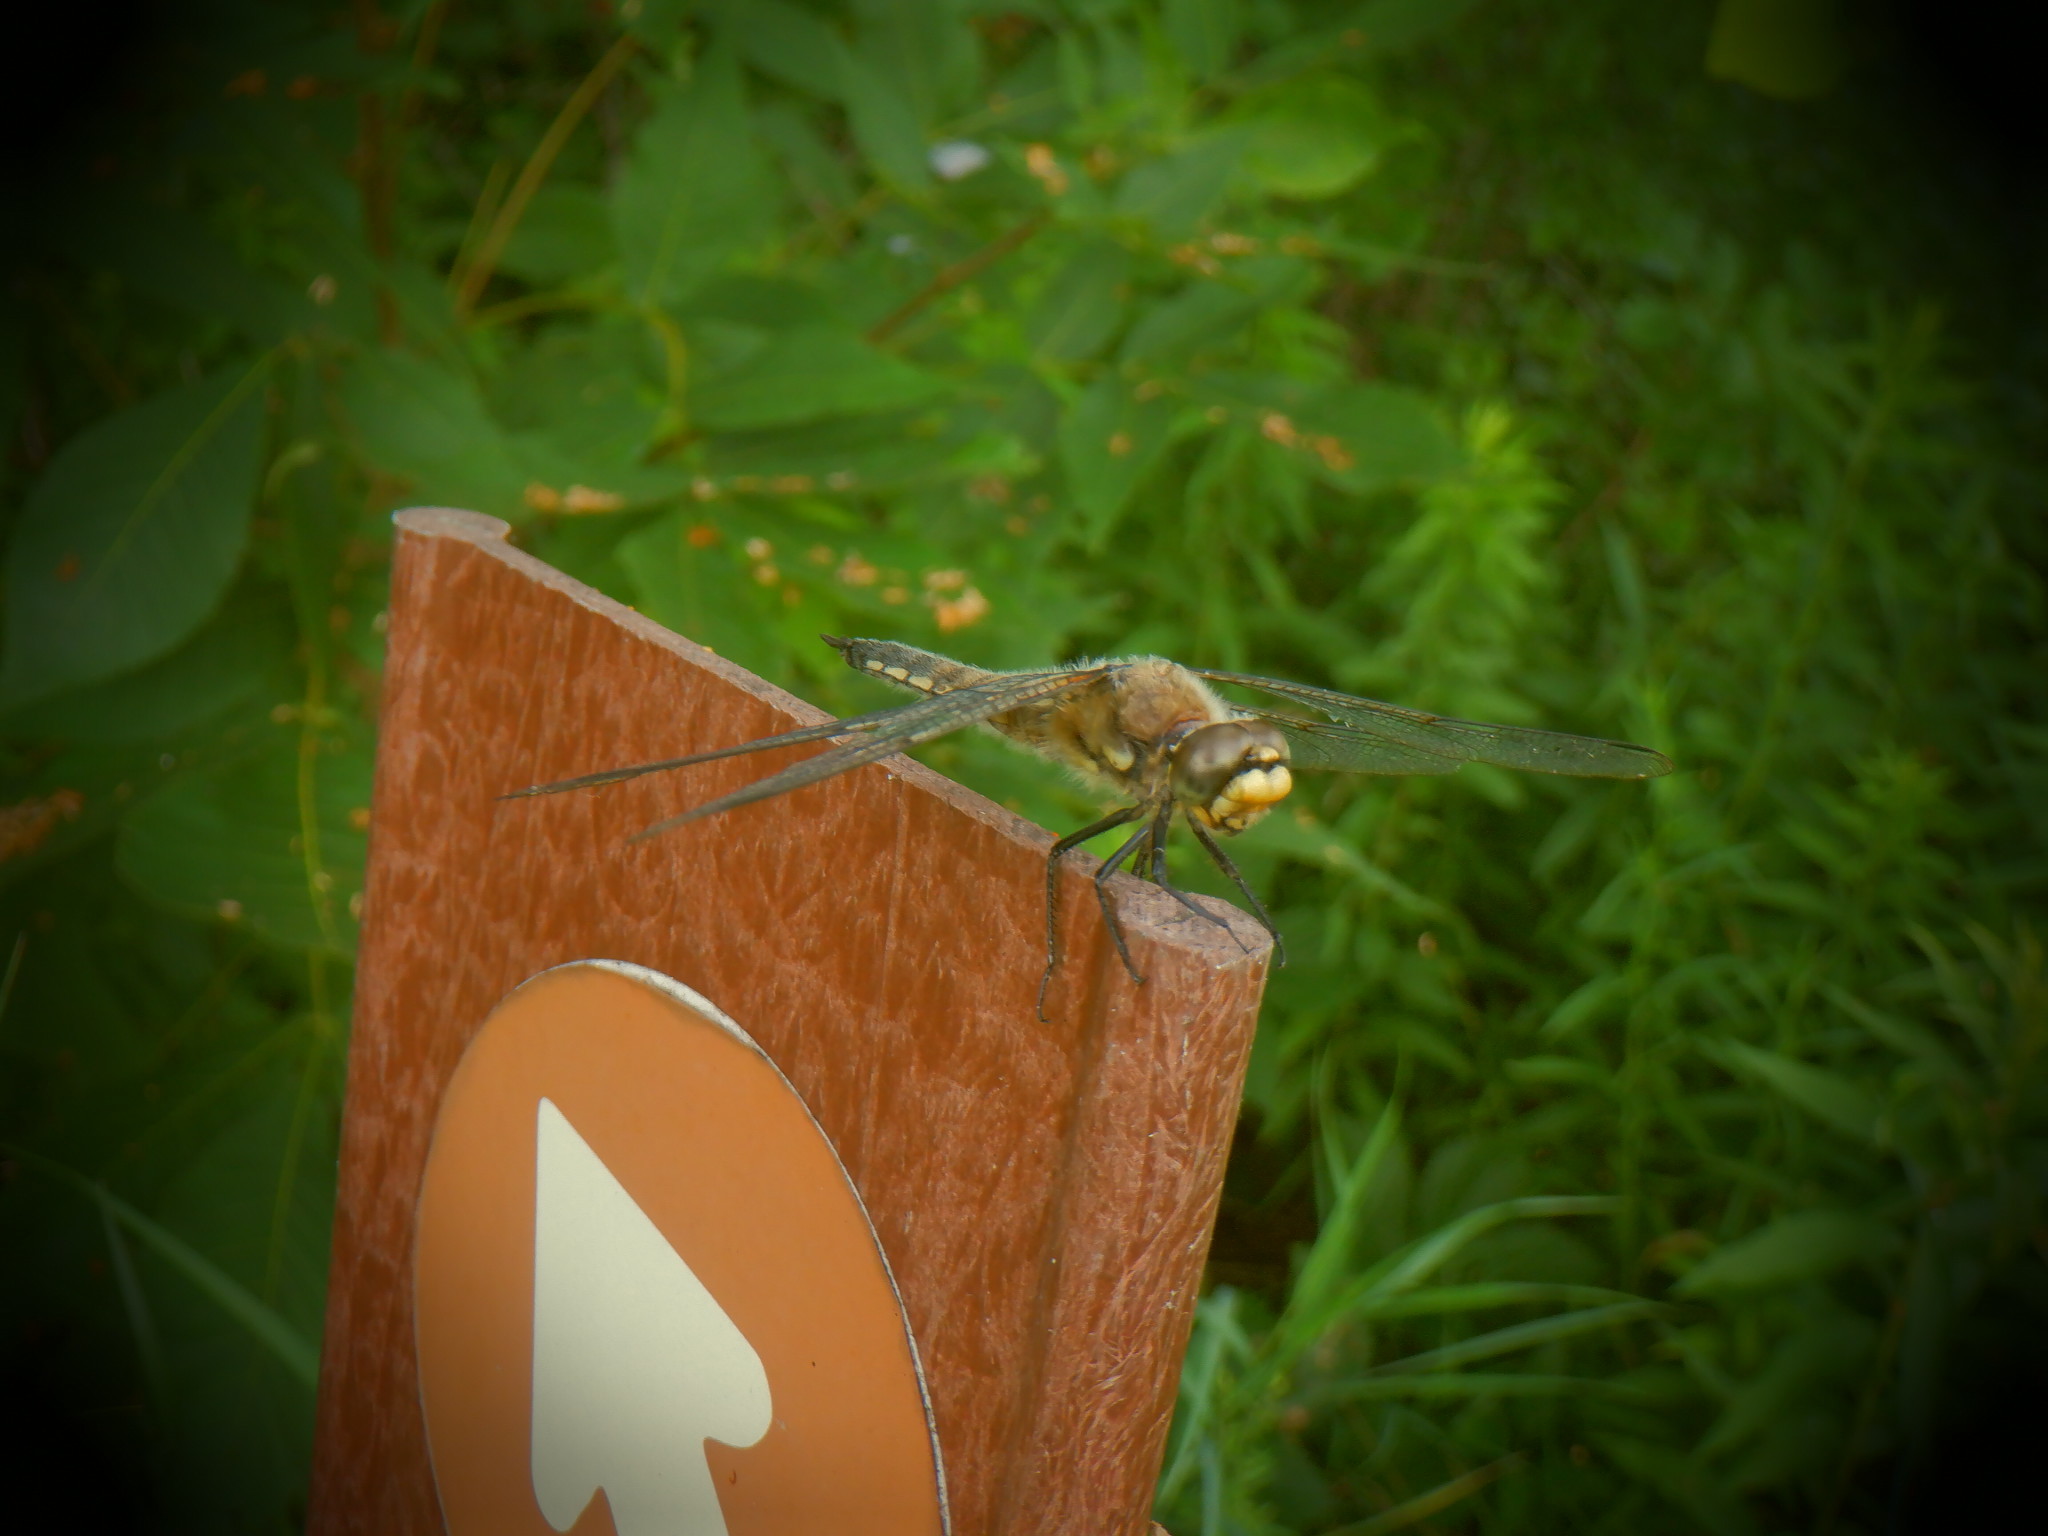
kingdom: Animalia
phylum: Arthropoda
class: Insecta
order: Odonata
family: Libellulidae
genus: Libellula
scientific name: Libellula quadrimaculata
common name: Four-spotted chaser
